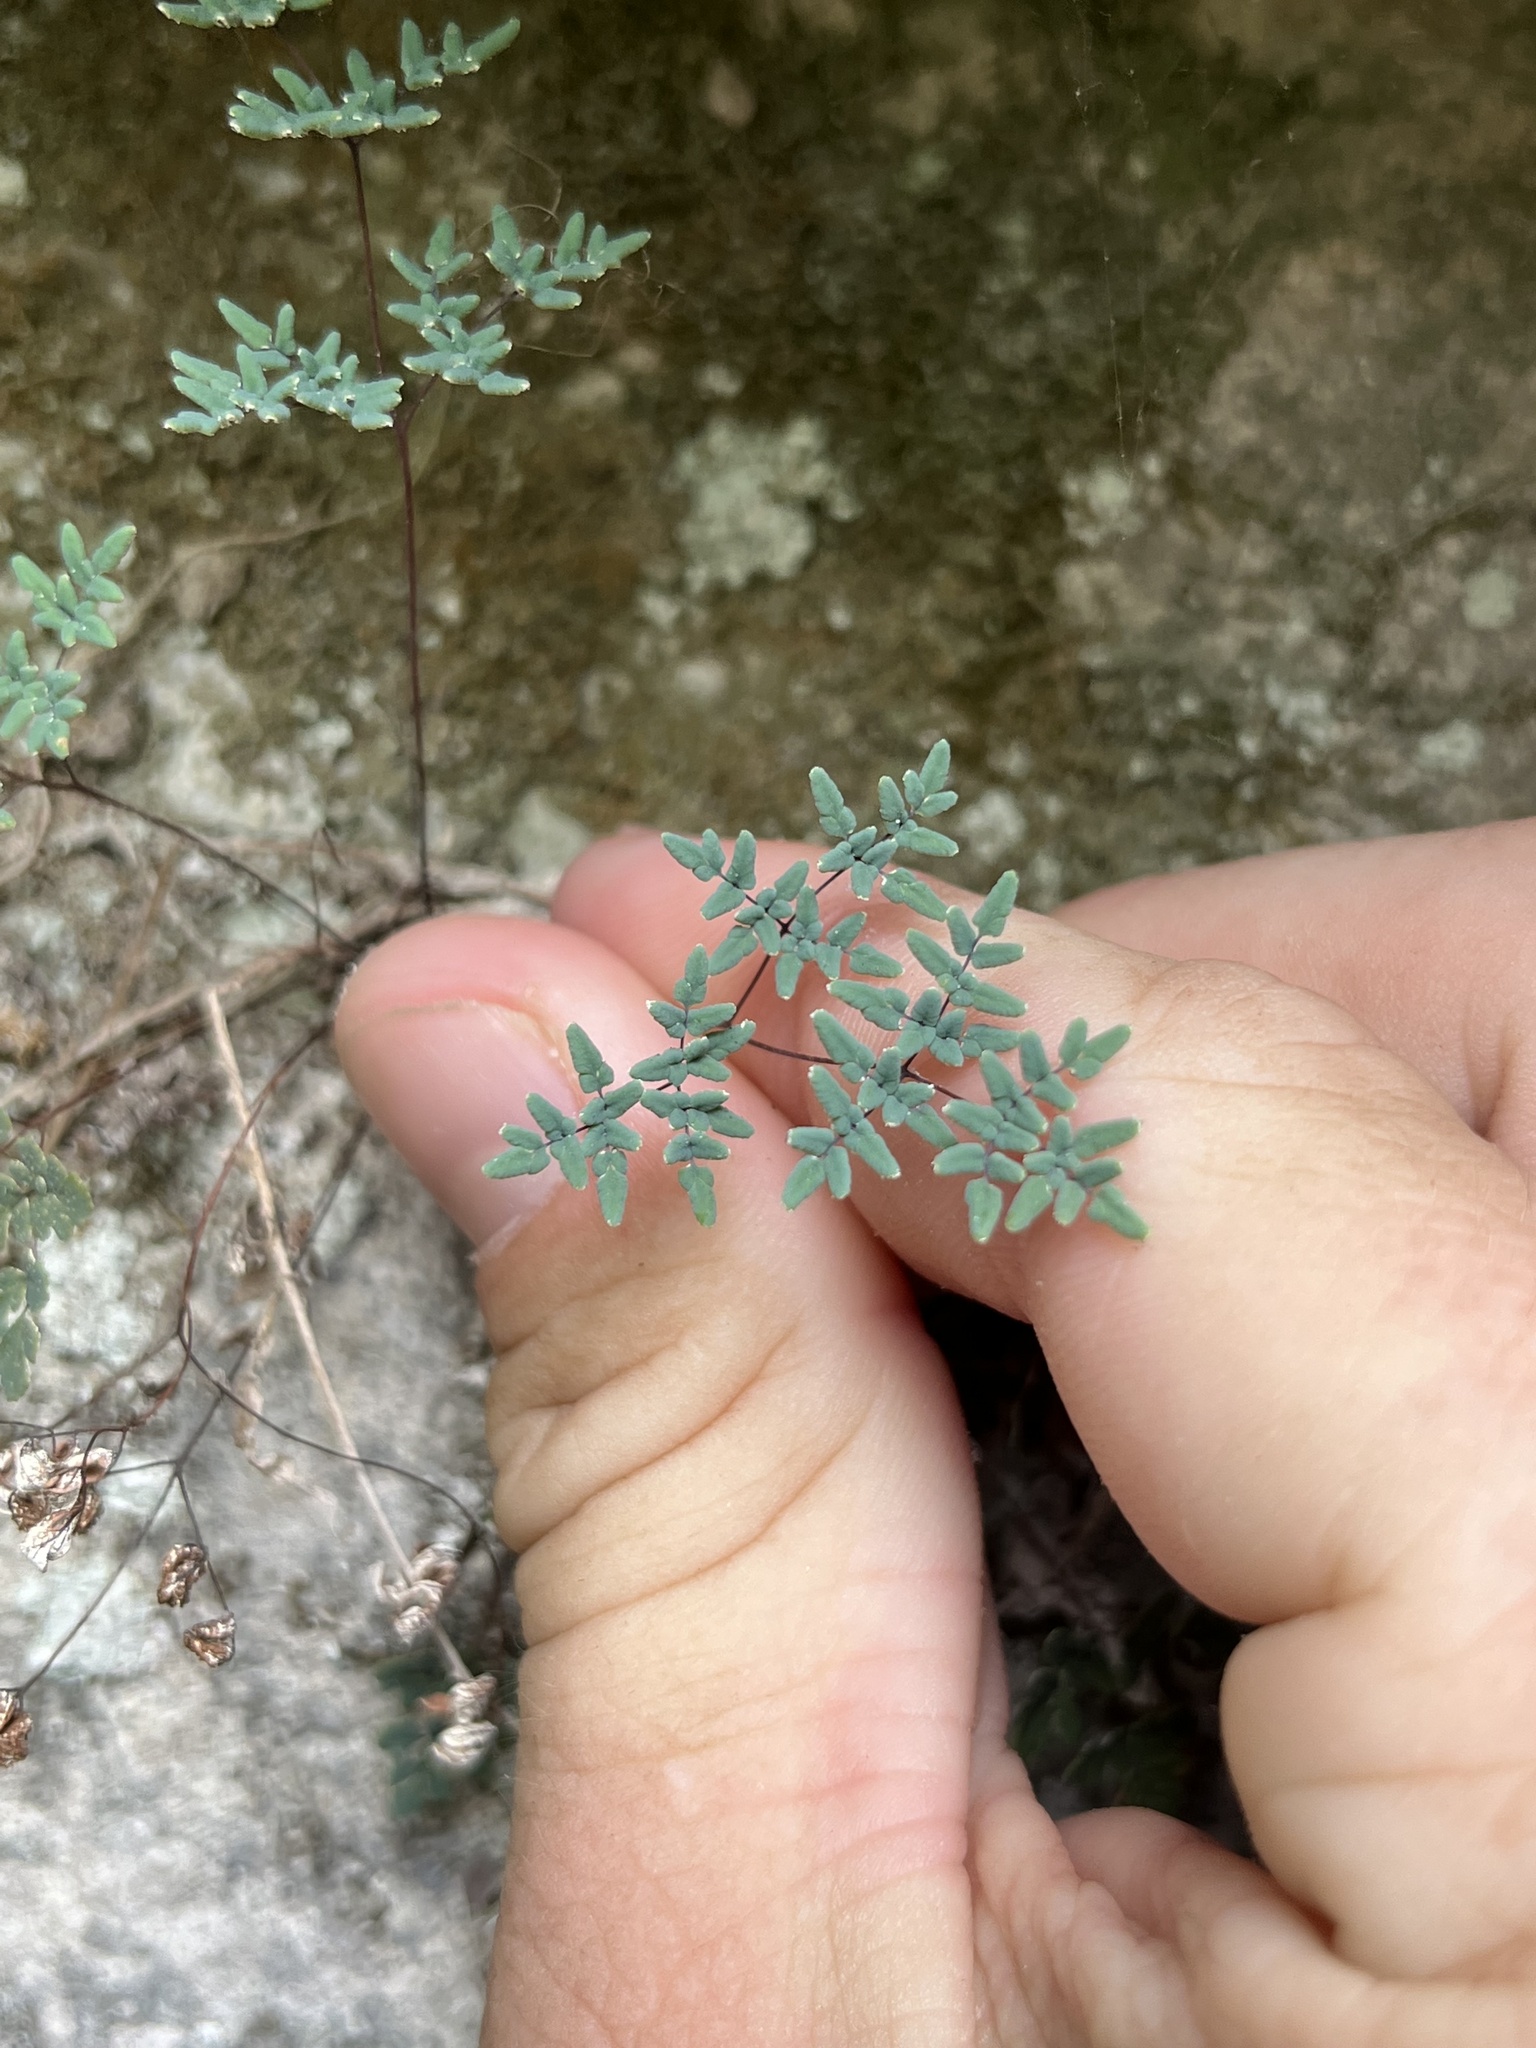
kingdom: Plantae
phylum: Tracheophyta
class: Polypodiopsida
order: Polypodiales
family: Pteridaceae
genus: Argyrochosma
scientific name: Argyrochosma dealbata
